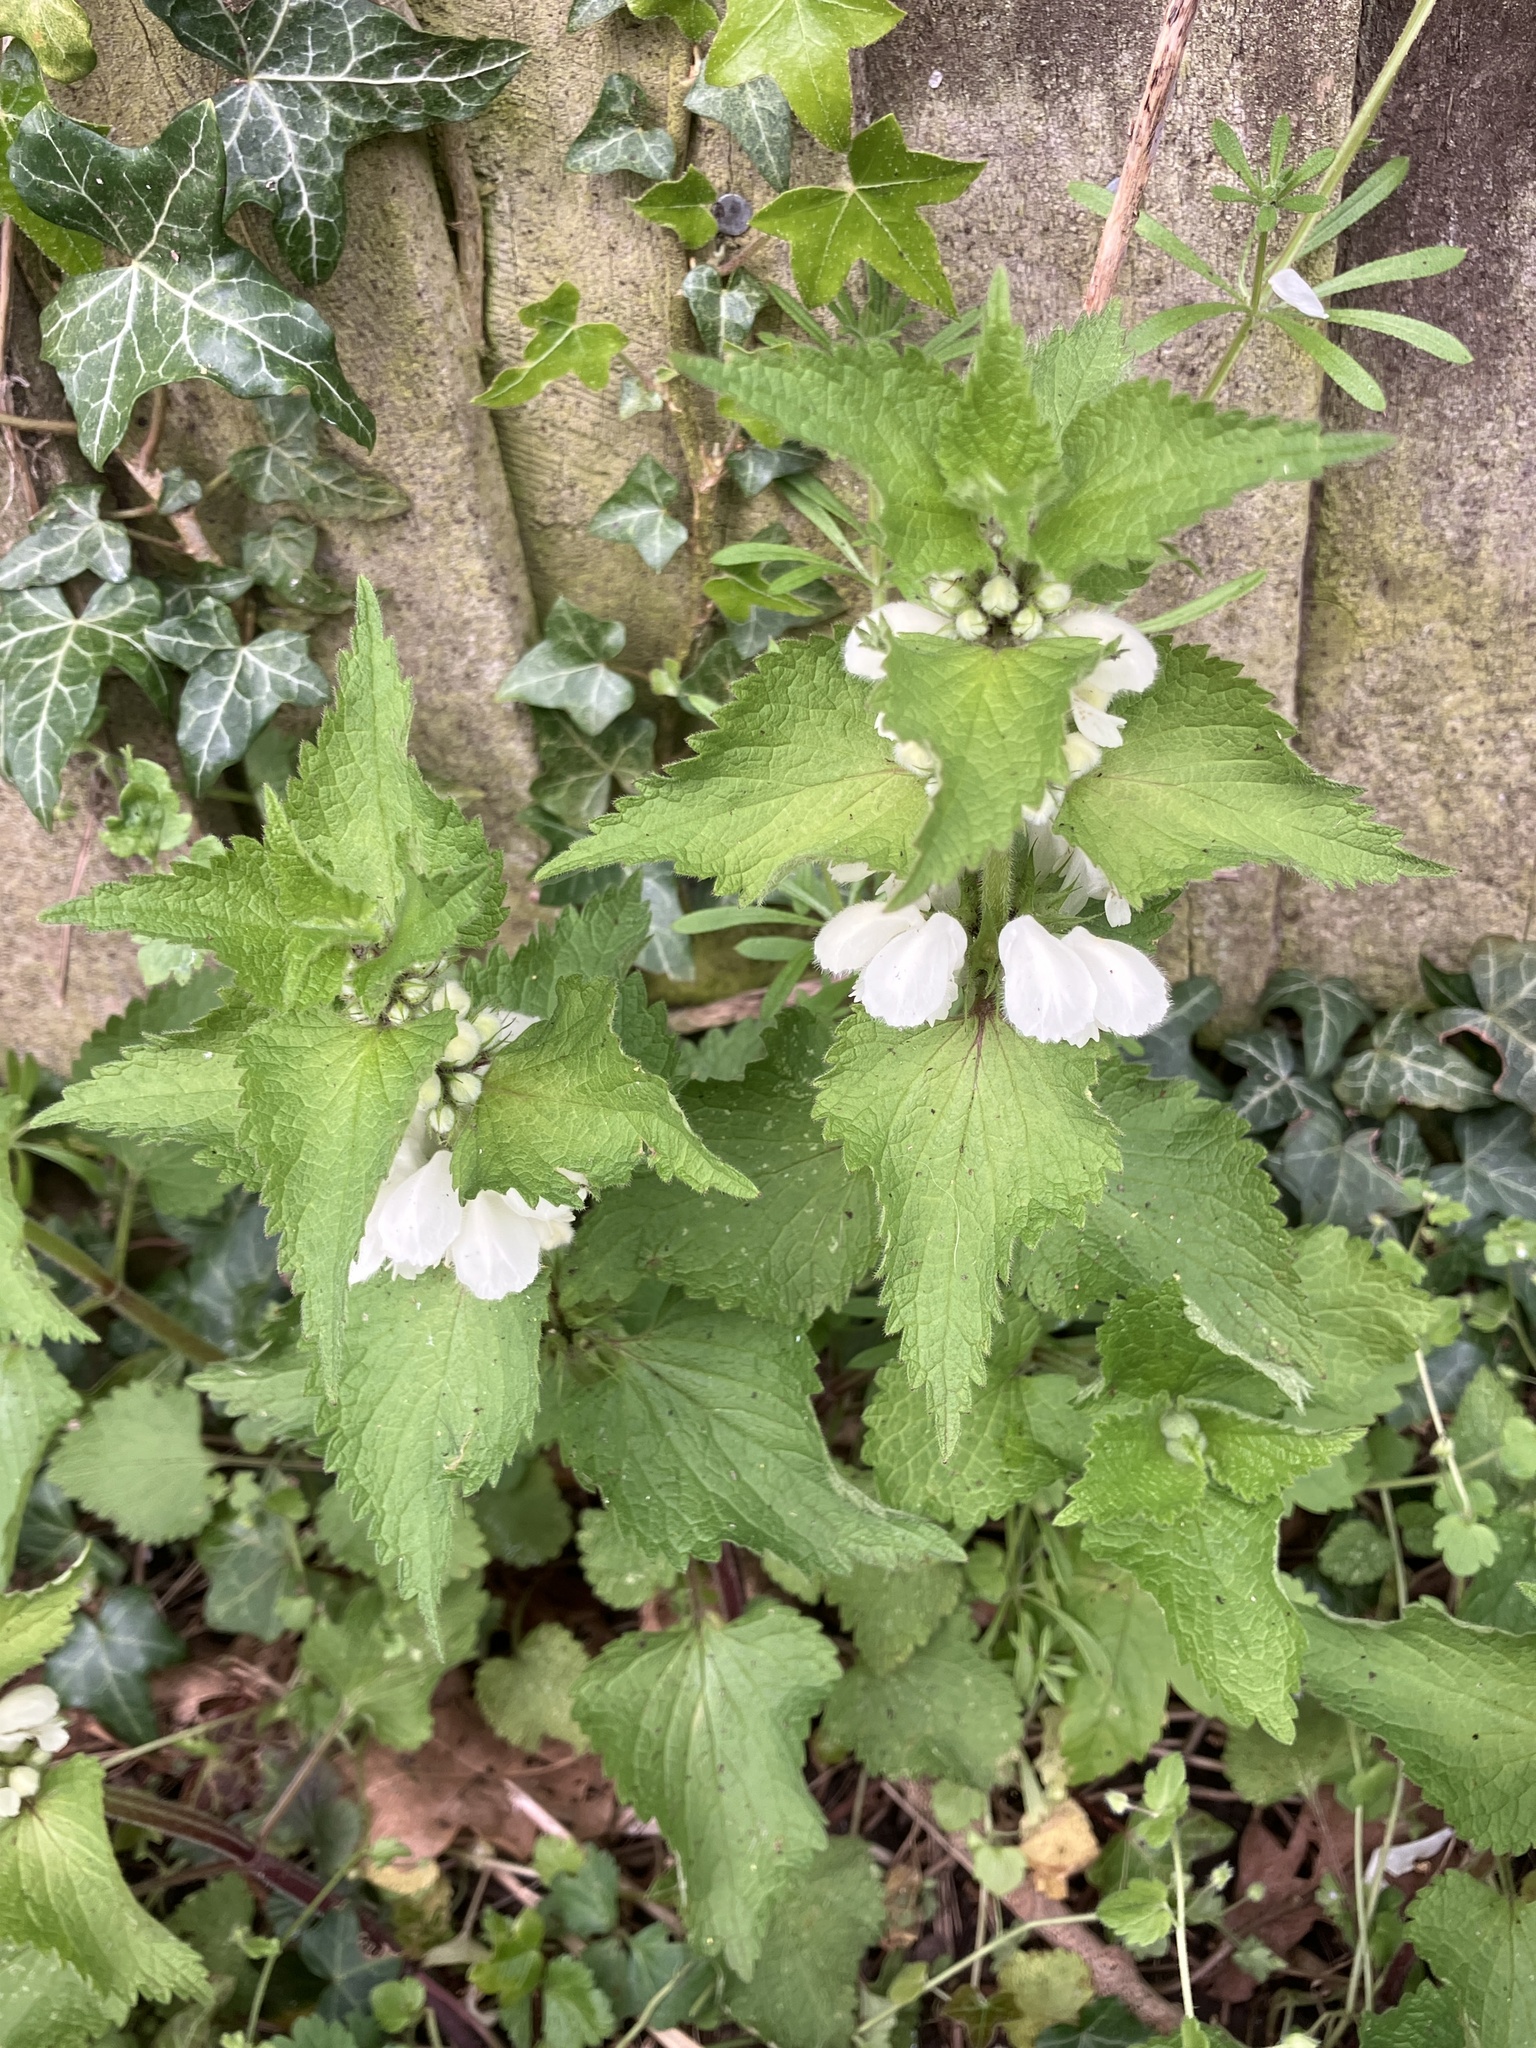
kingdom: Plantae
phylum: Tracheophyta
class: Magnoliopsida
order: Lamiales
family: Lamiaceae
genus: Lamium
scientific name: Lamium album
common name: White dead-nettle
